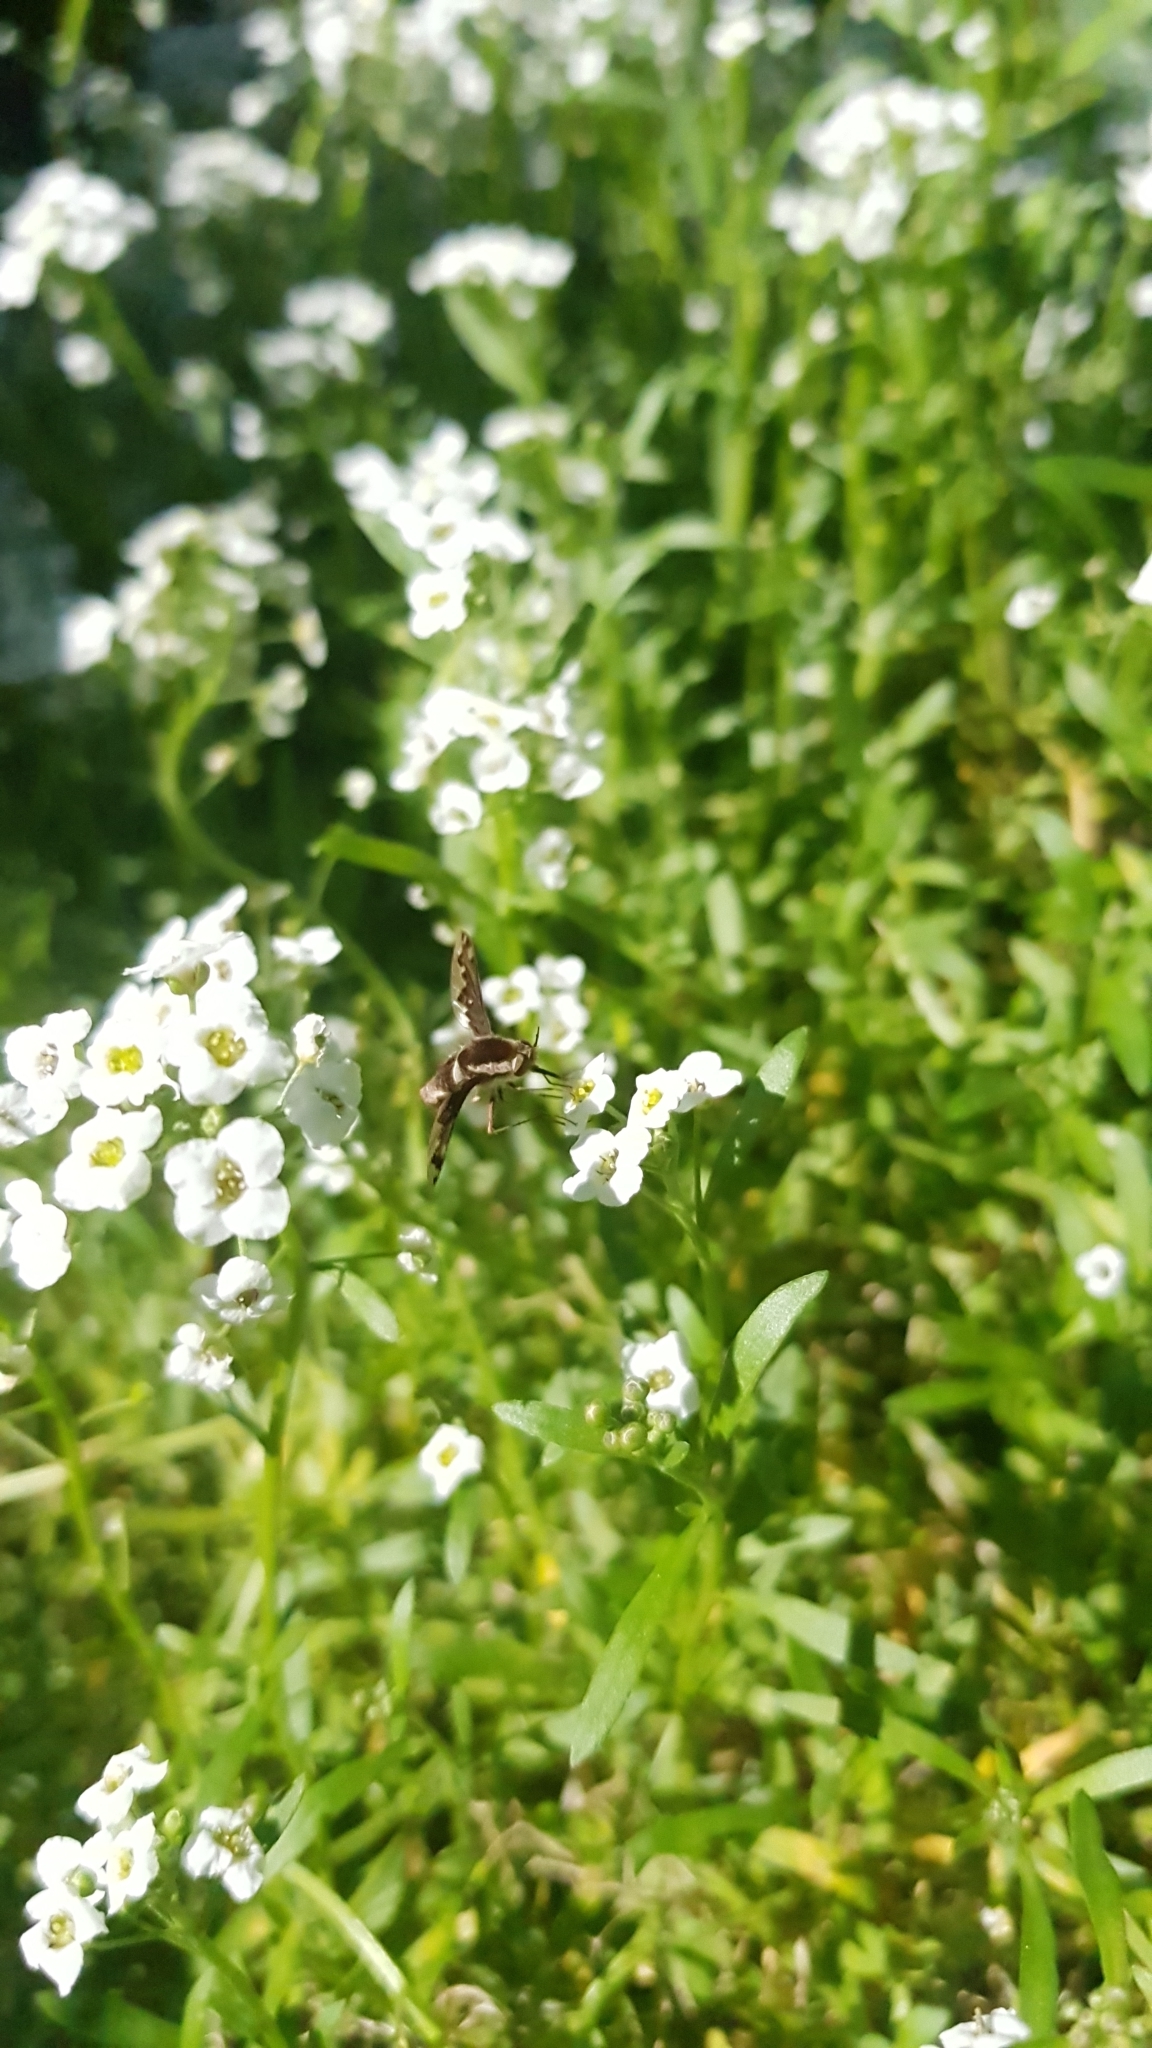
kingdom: Animalia
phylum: Arthropoda
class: Insecta
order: Diptera
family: Bombyliidae
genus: Staurostichus
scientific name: Staurostichus hilare
